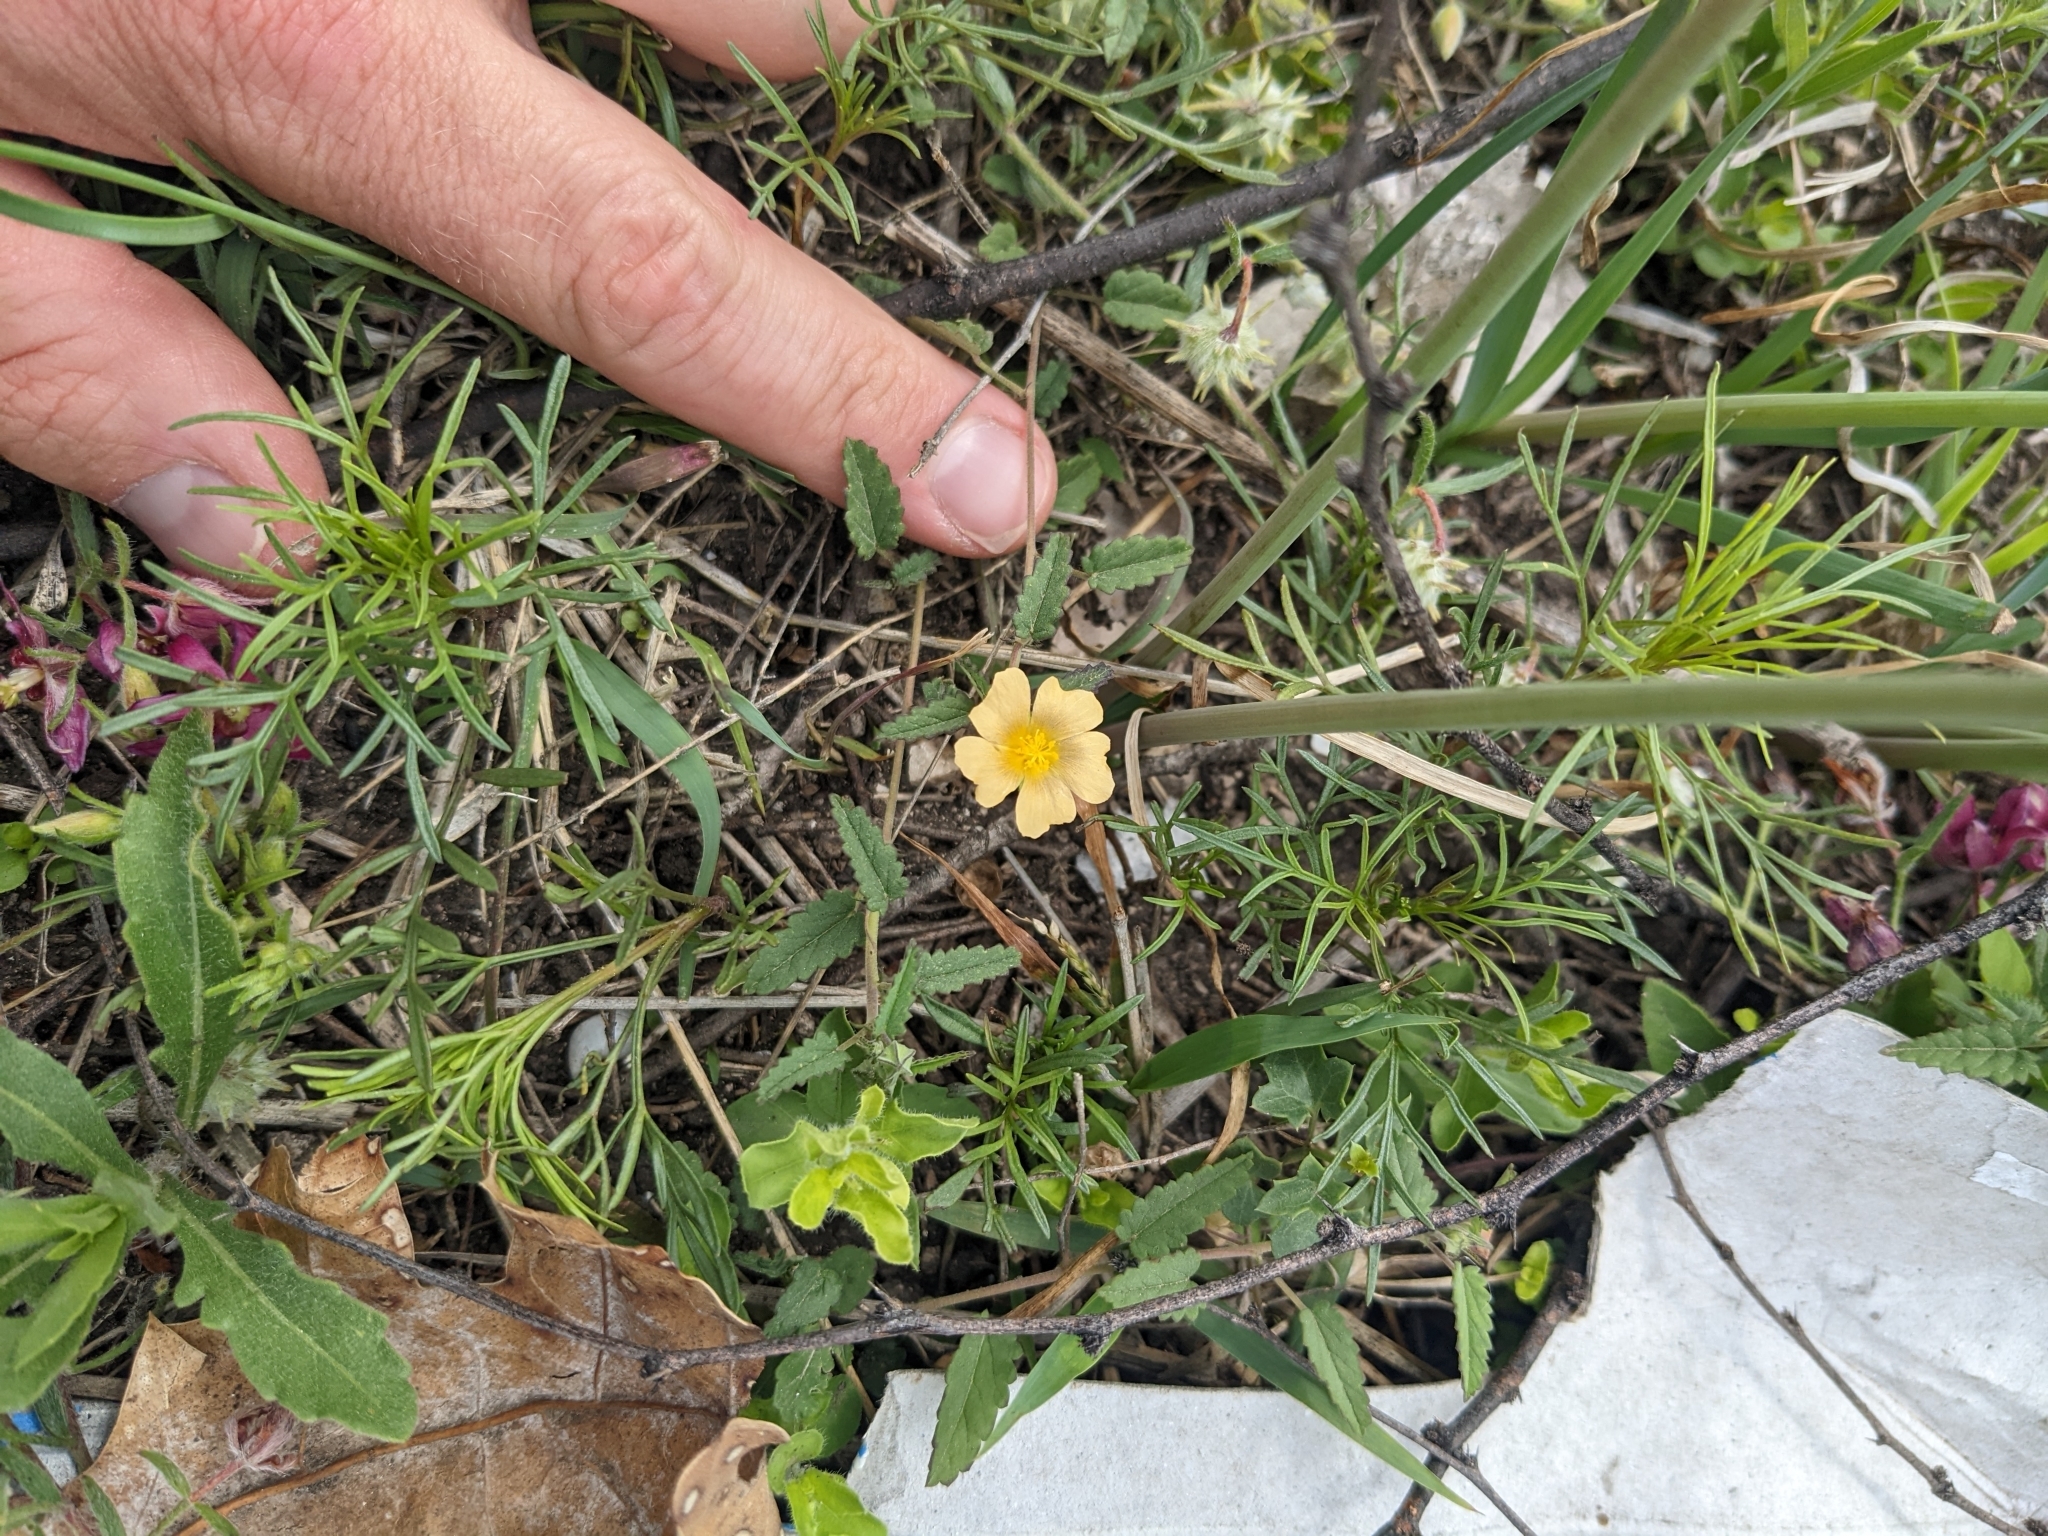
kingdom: Plantae
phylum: Tracheophyta
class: Magnoliopsida
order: Malvales
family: Malvaceae
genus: Sida
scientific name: Sida abutilifolia
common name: Spreading fanpetals
